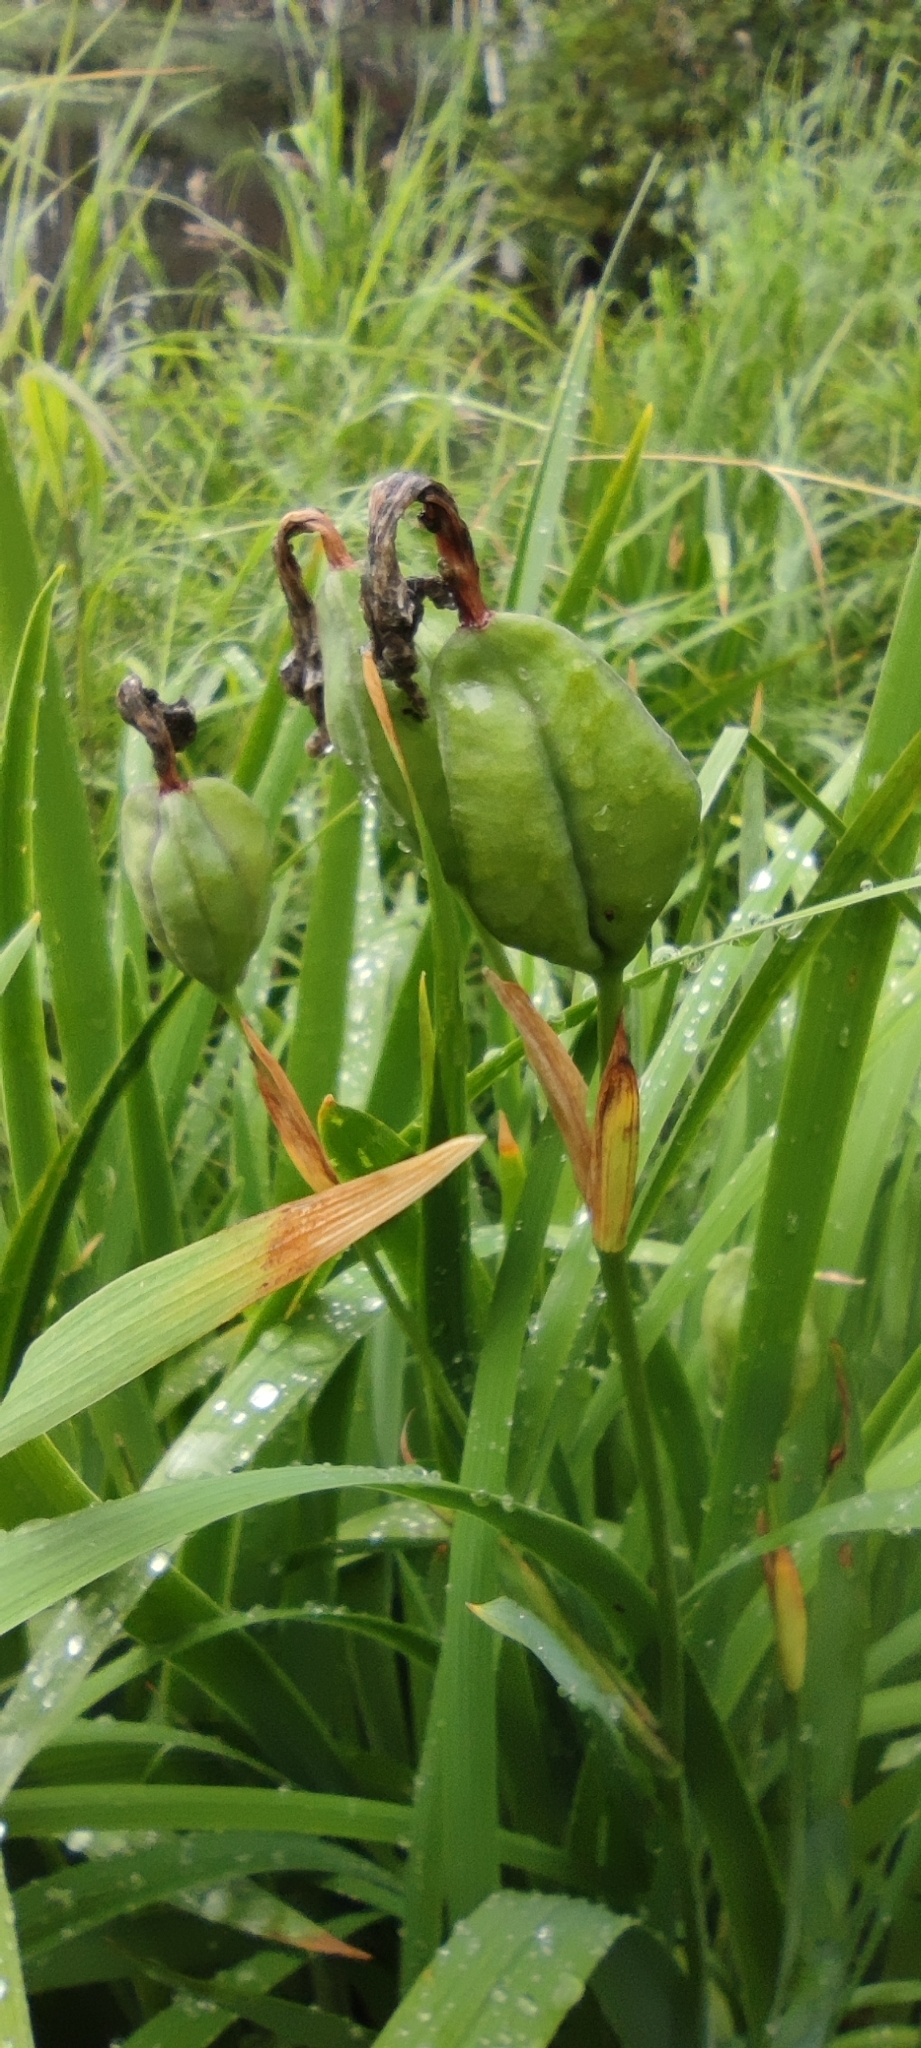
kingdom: Plantae
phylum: Tracheophyta
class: Liliopsida
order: Asparagales
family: Iridaceae
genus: Iris
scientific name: Iris setosa
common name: Arctic blue flag
